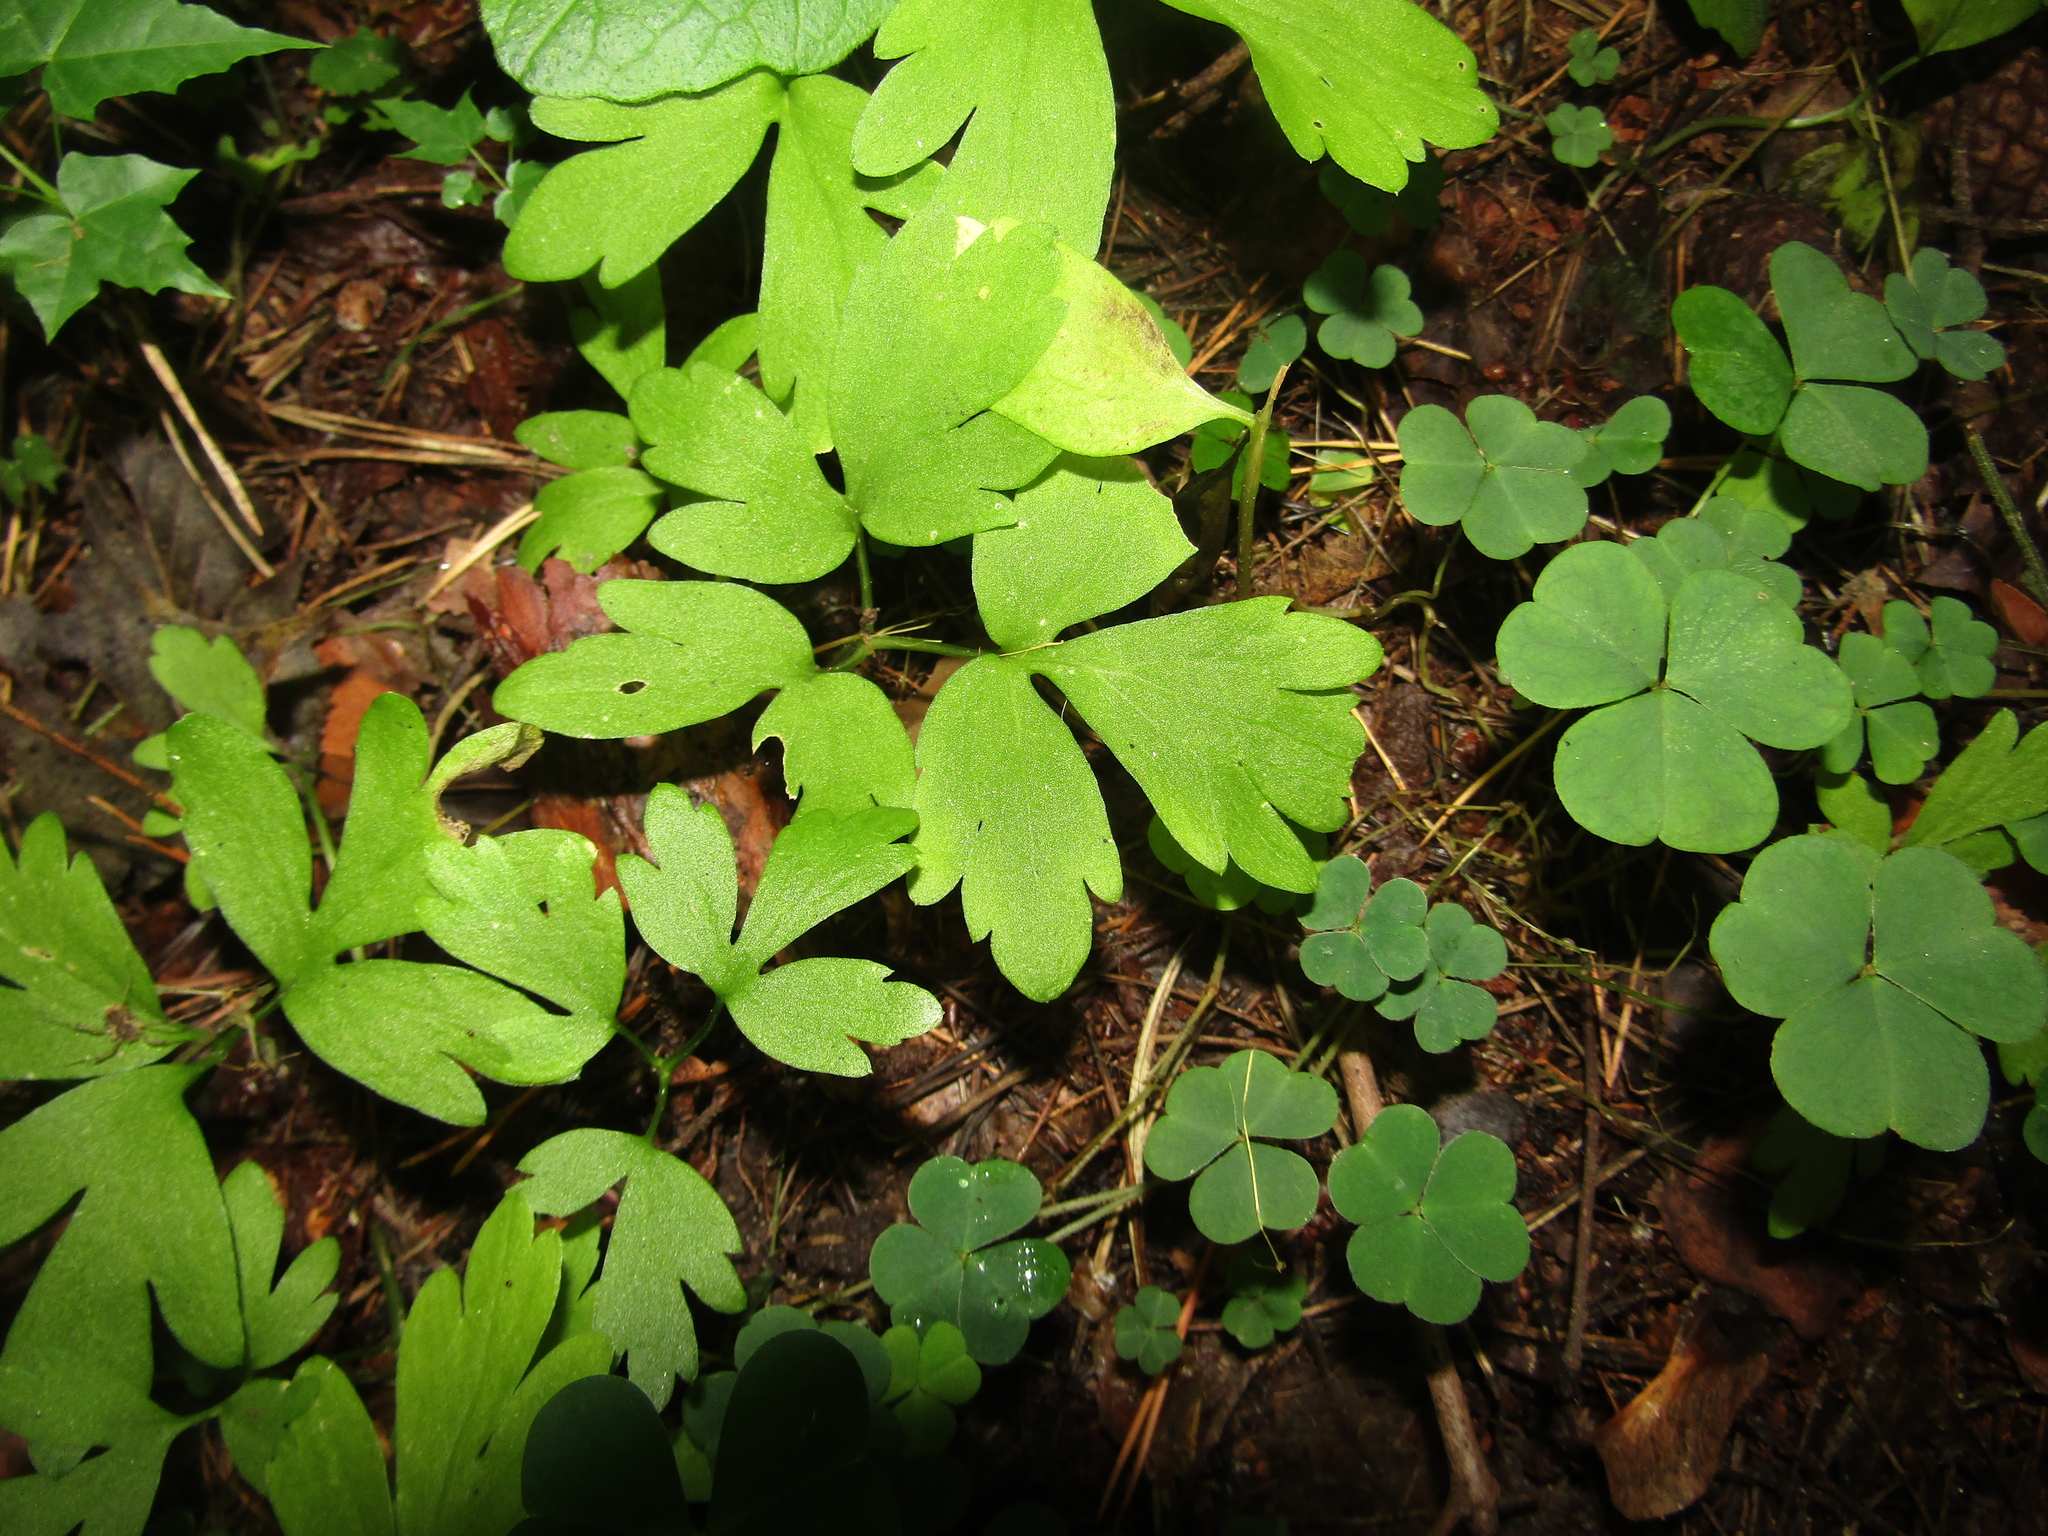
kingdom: Plantae
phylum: Tracheophyta
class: Magnoliopsida
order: Dipsacales
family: Viburnaceae
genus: Adoxa
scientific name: Adoxa moschatellina
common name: Moschatel
